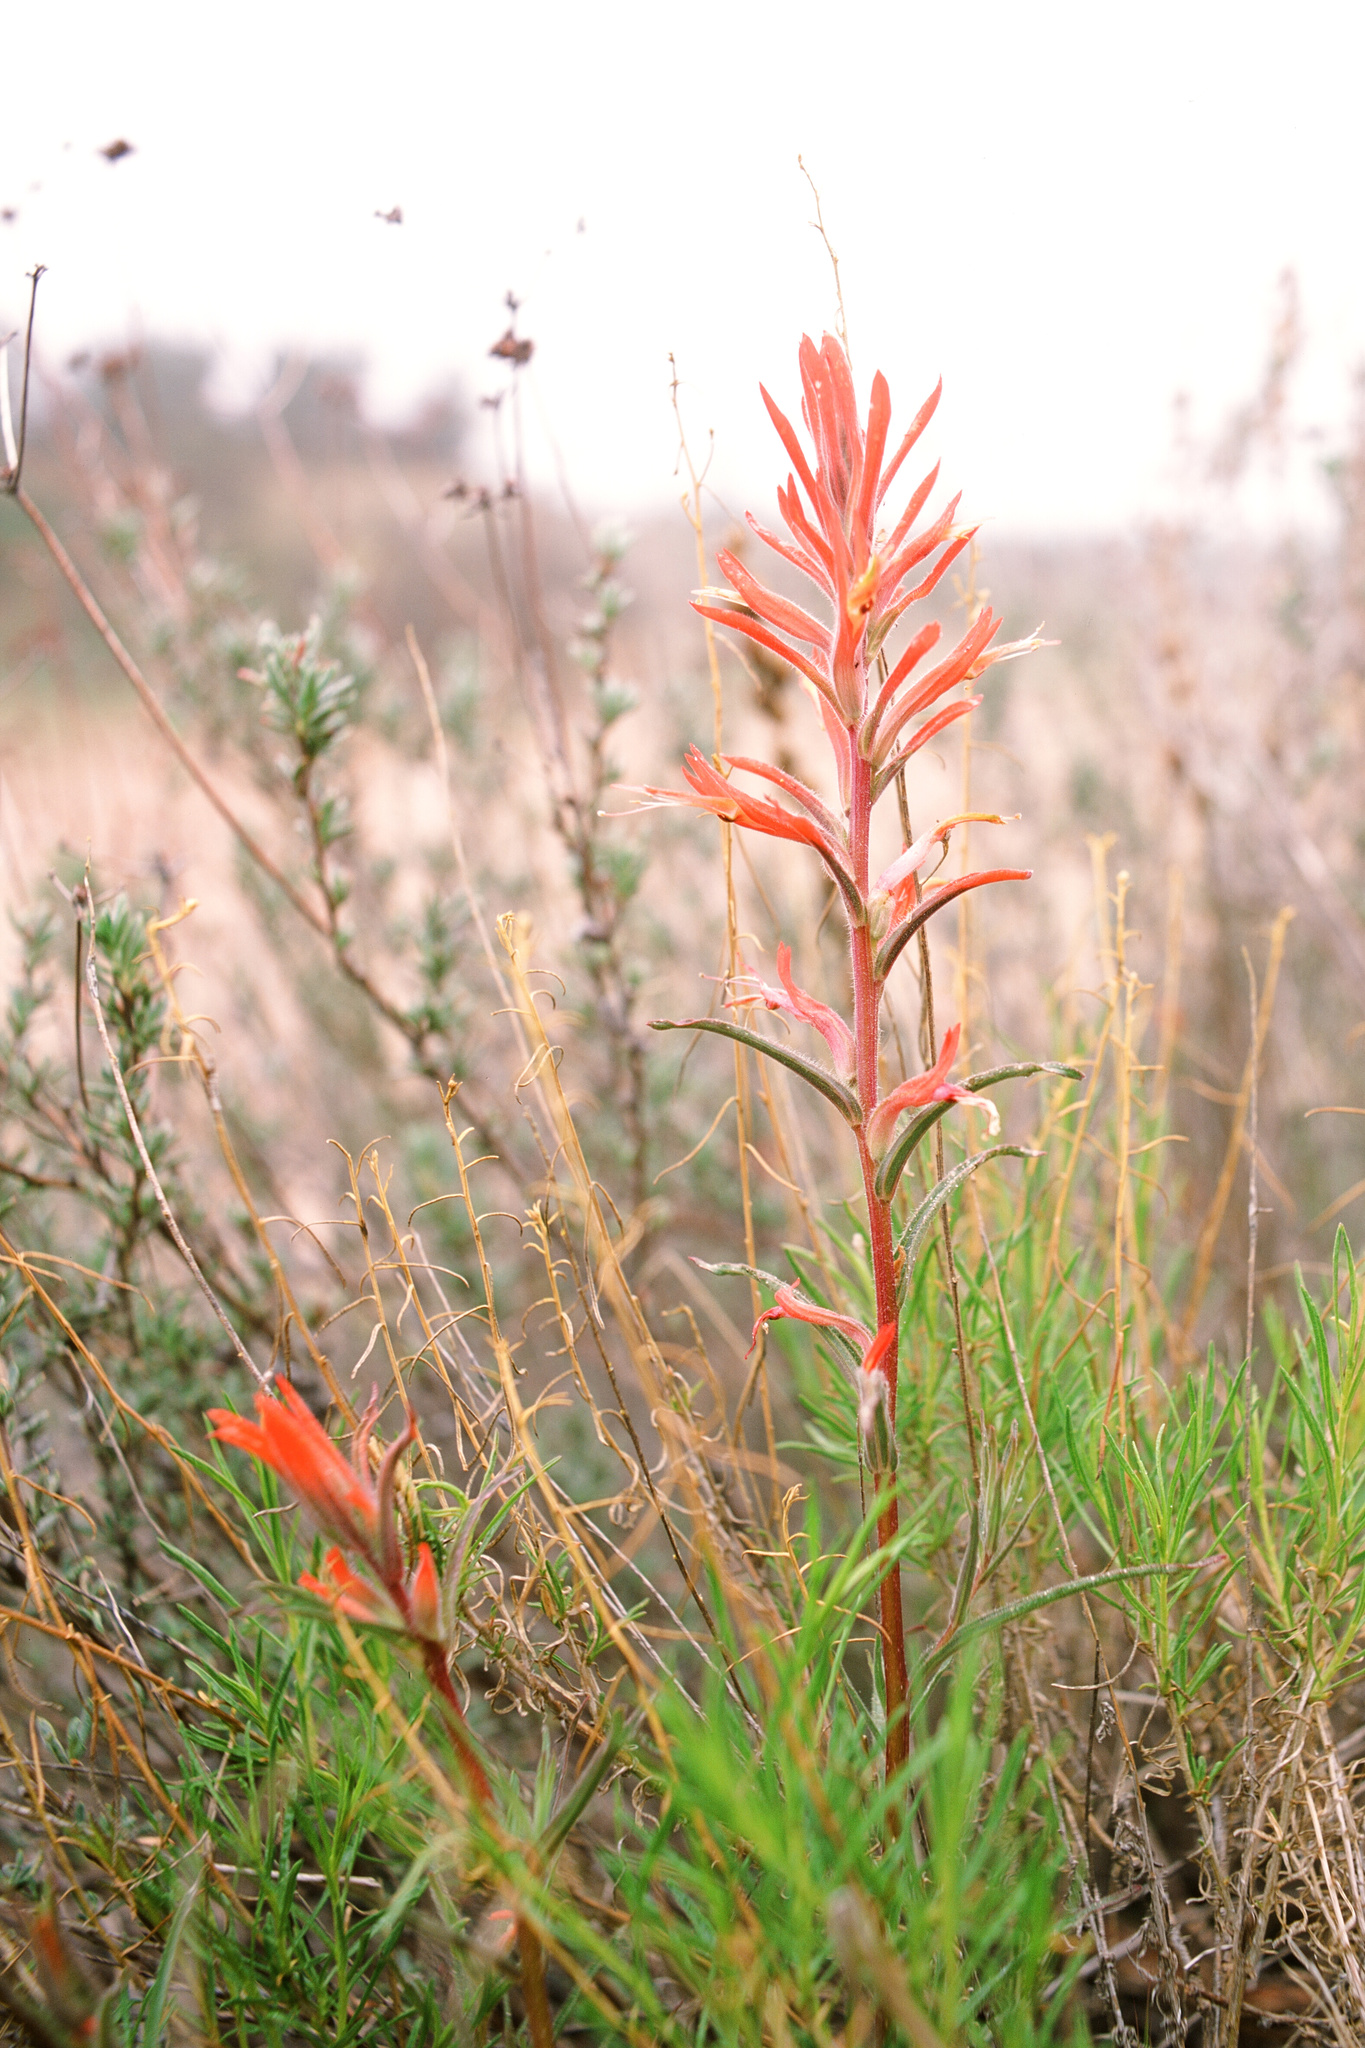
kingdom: Plantae
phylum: Tracheophyta
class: Magnoliopsida
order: Lamiales
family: Orobanchaceae
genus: Castilleja
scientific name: Castilleja subinclusa
